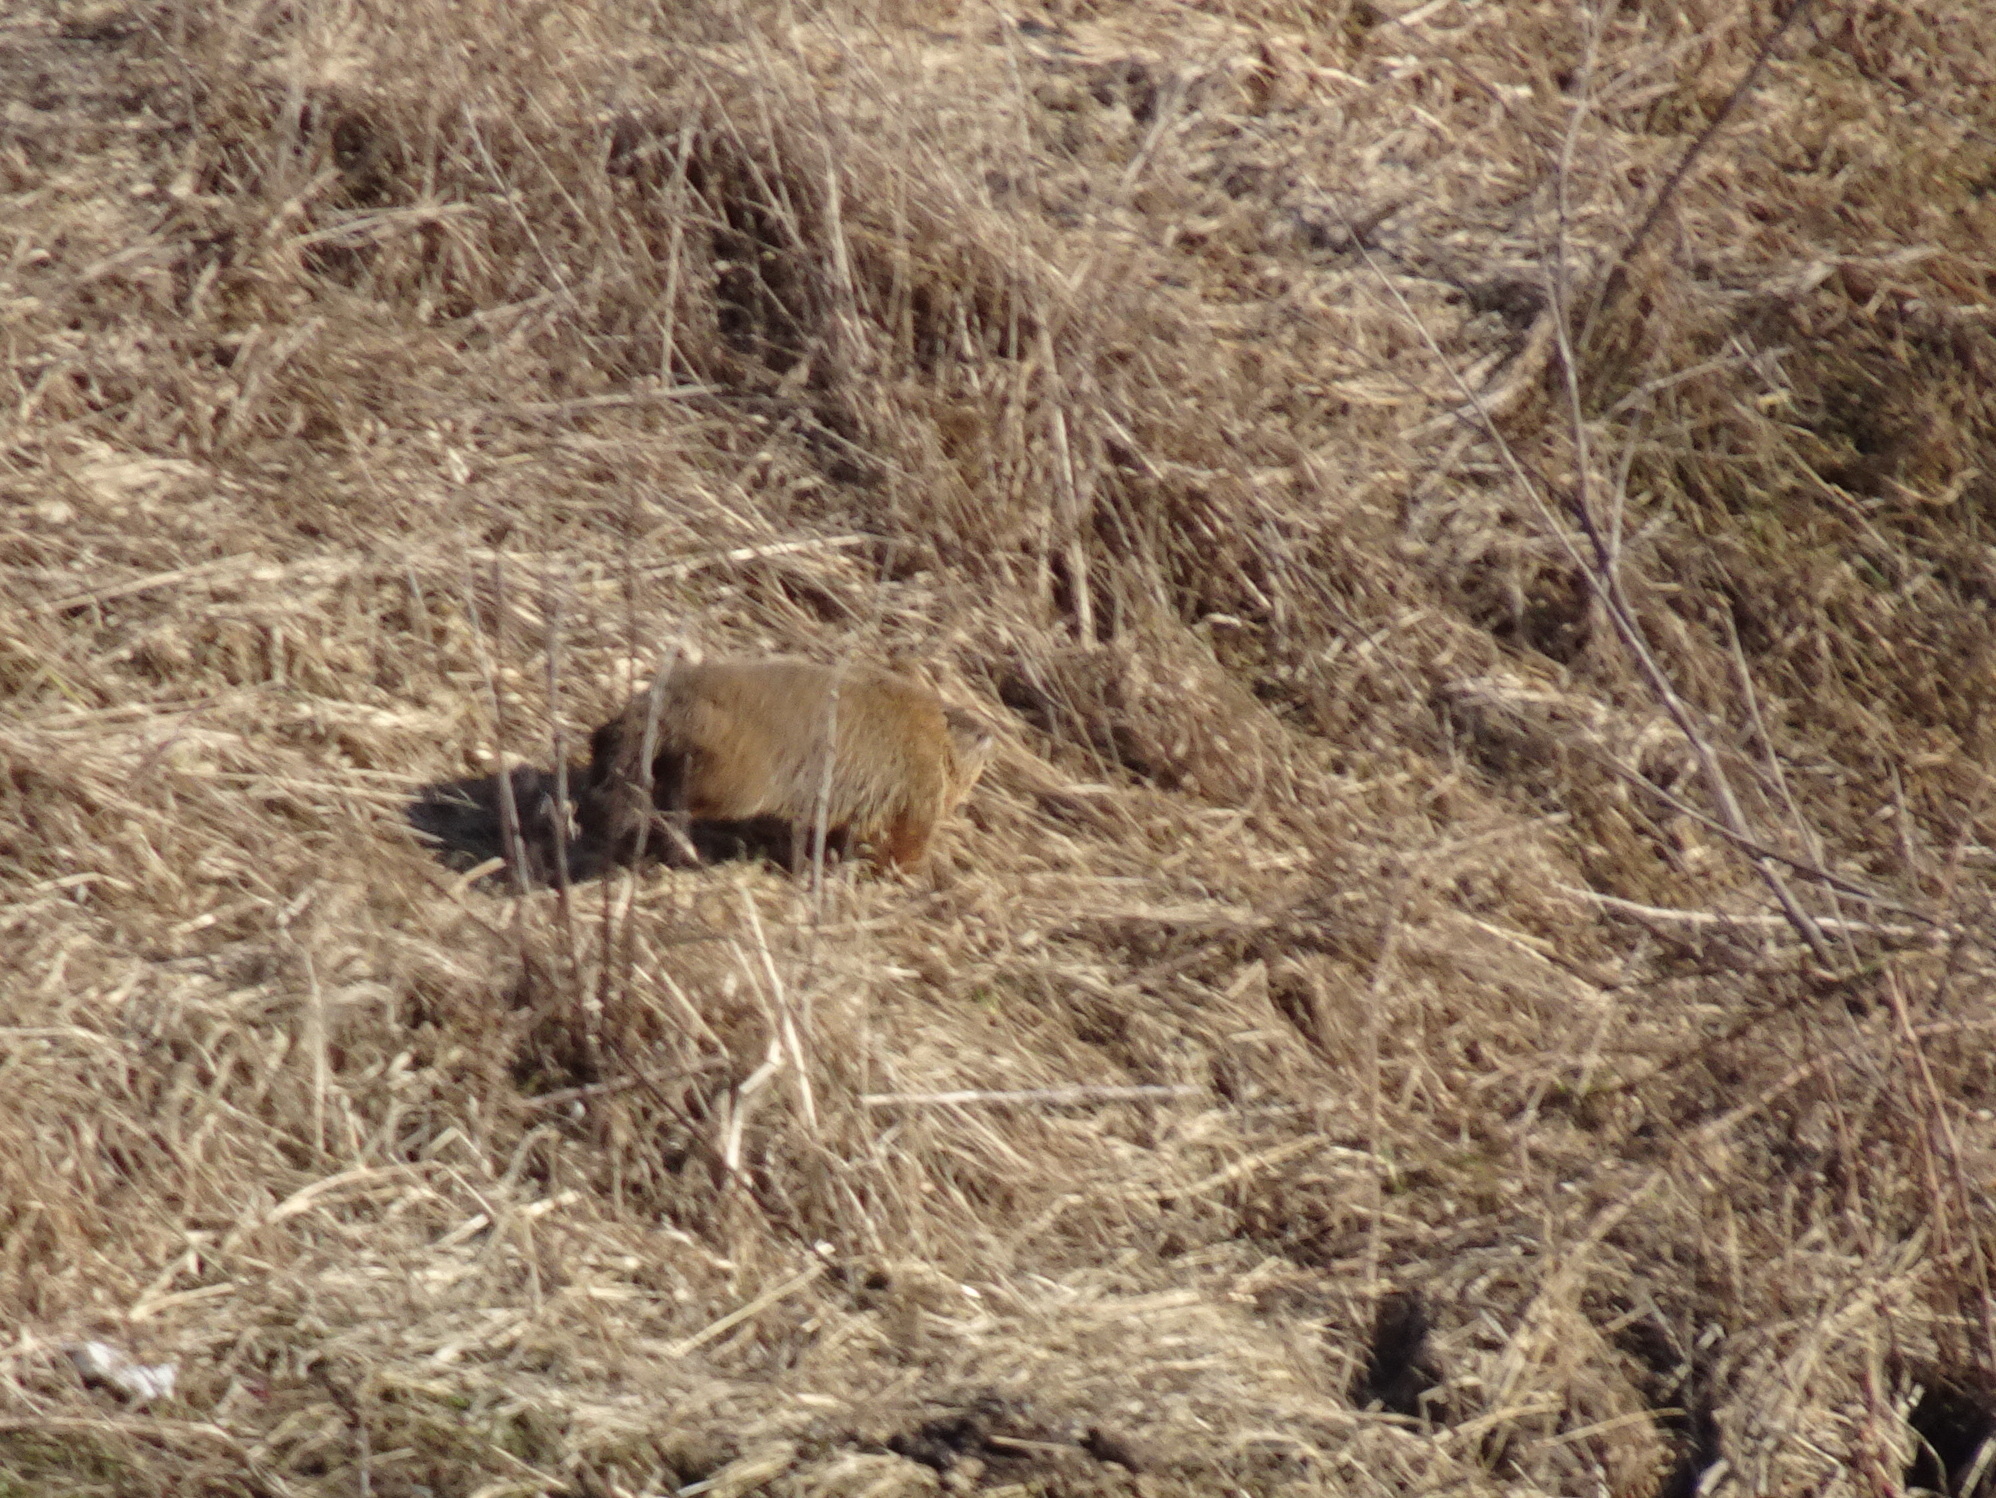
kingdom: Animalia
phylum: Chordata
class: Mammalia
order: Rodentia
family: Sciuridae
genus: Marmota
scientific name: Marmota monax
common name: Groundhog
